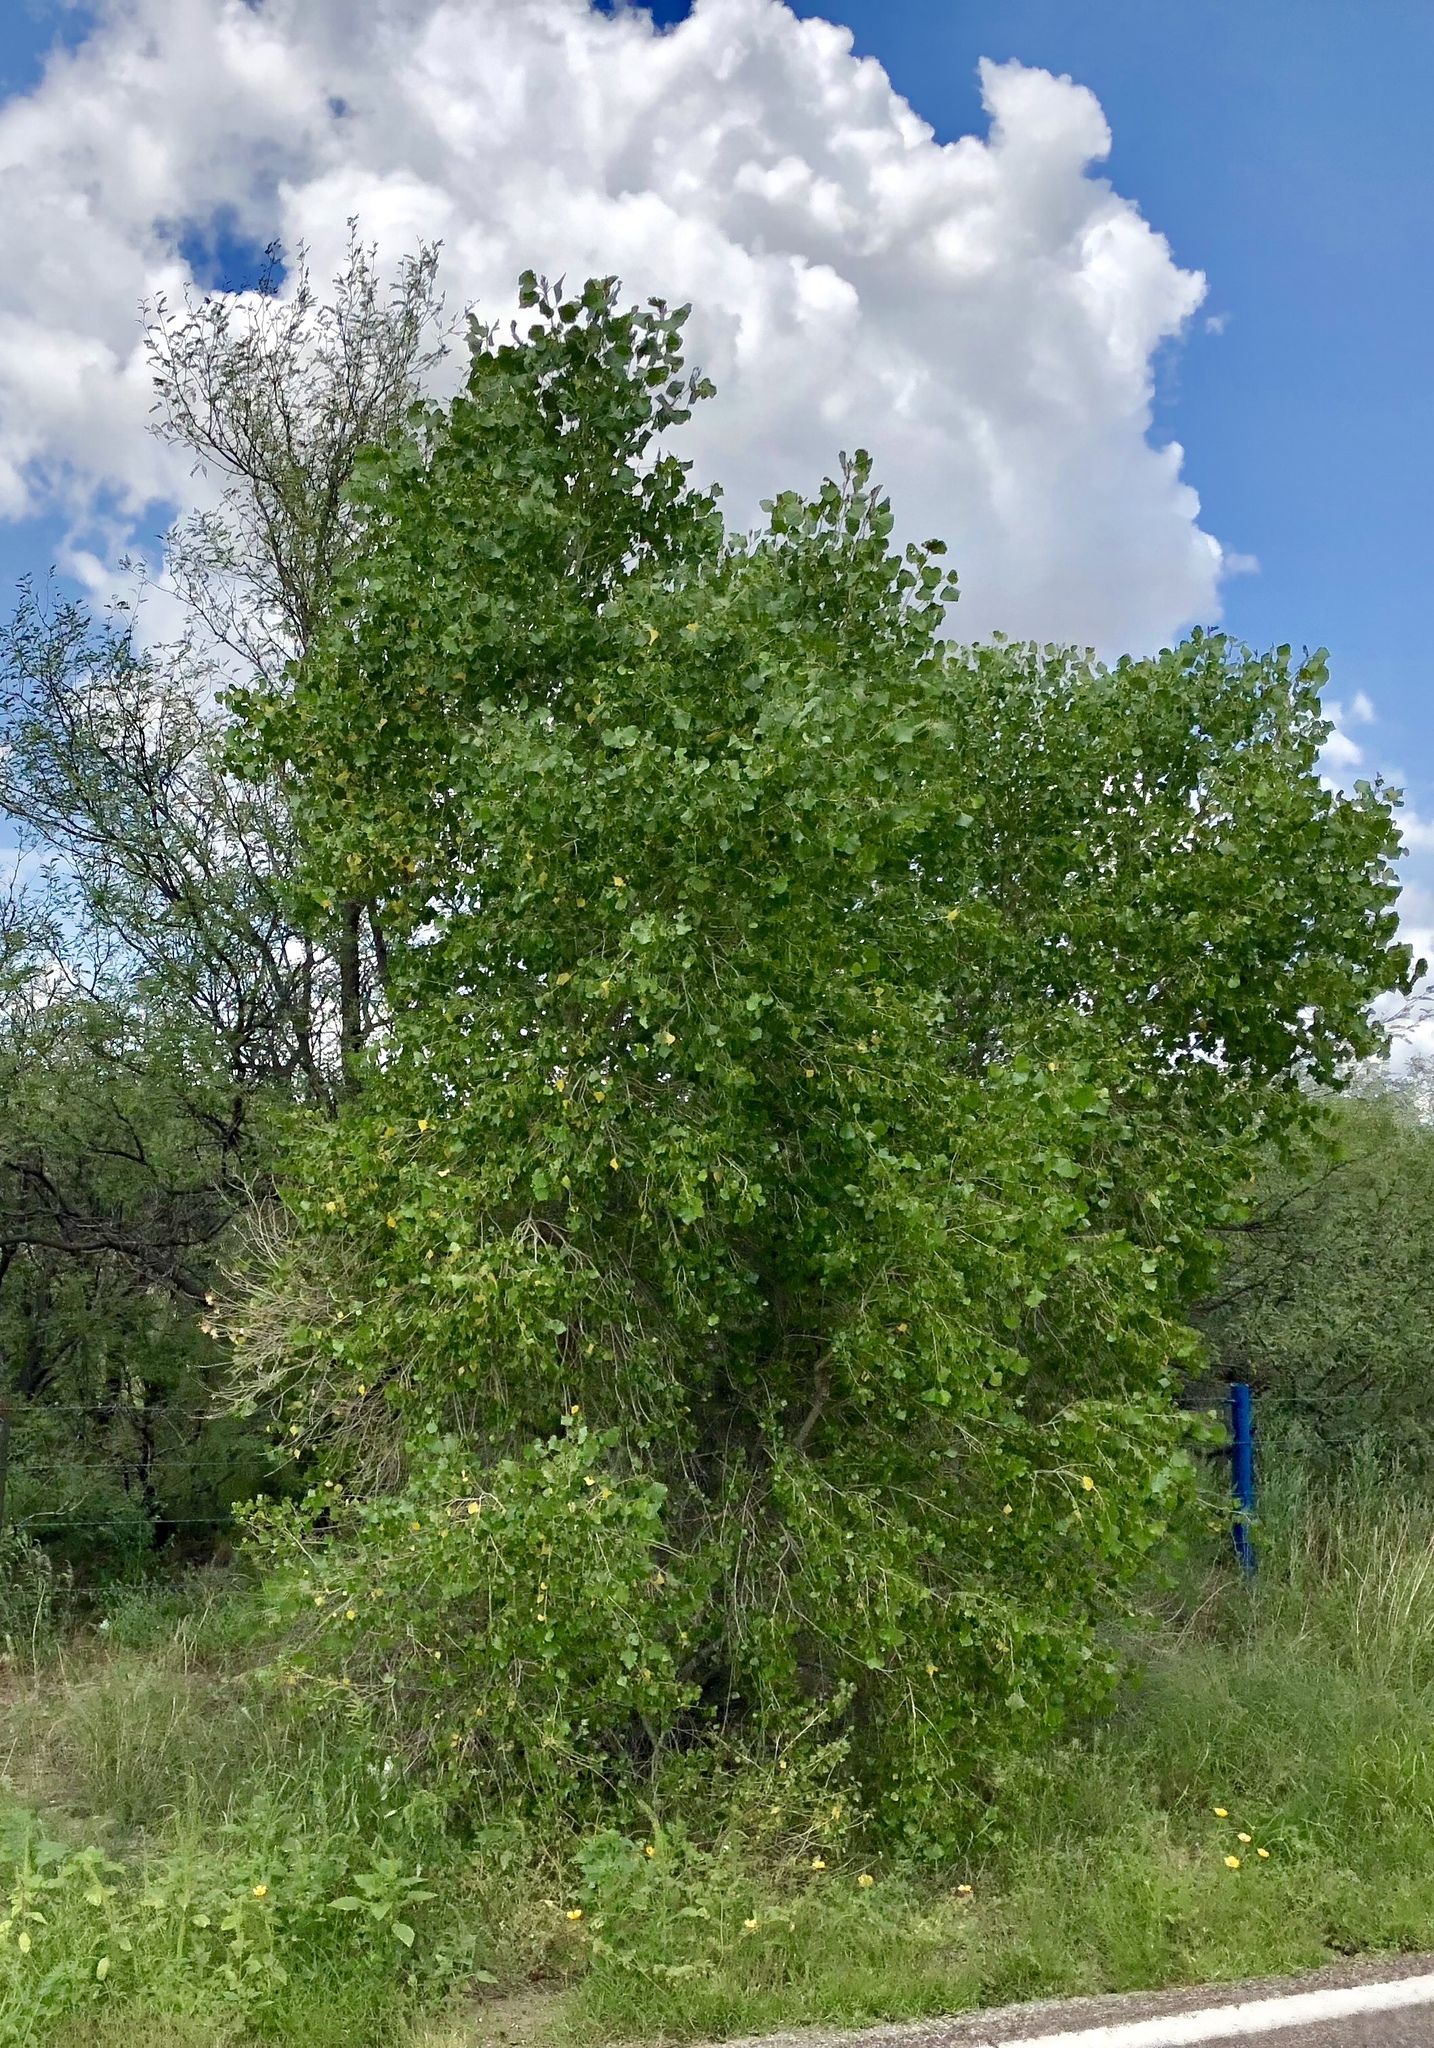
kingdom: Plantae
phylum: Tracheophyta
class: Magnoliopsida
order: Malpighiales
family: Salicaceae
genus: Populus
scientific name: Populus fremontii
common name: Fremont's cottonwood
